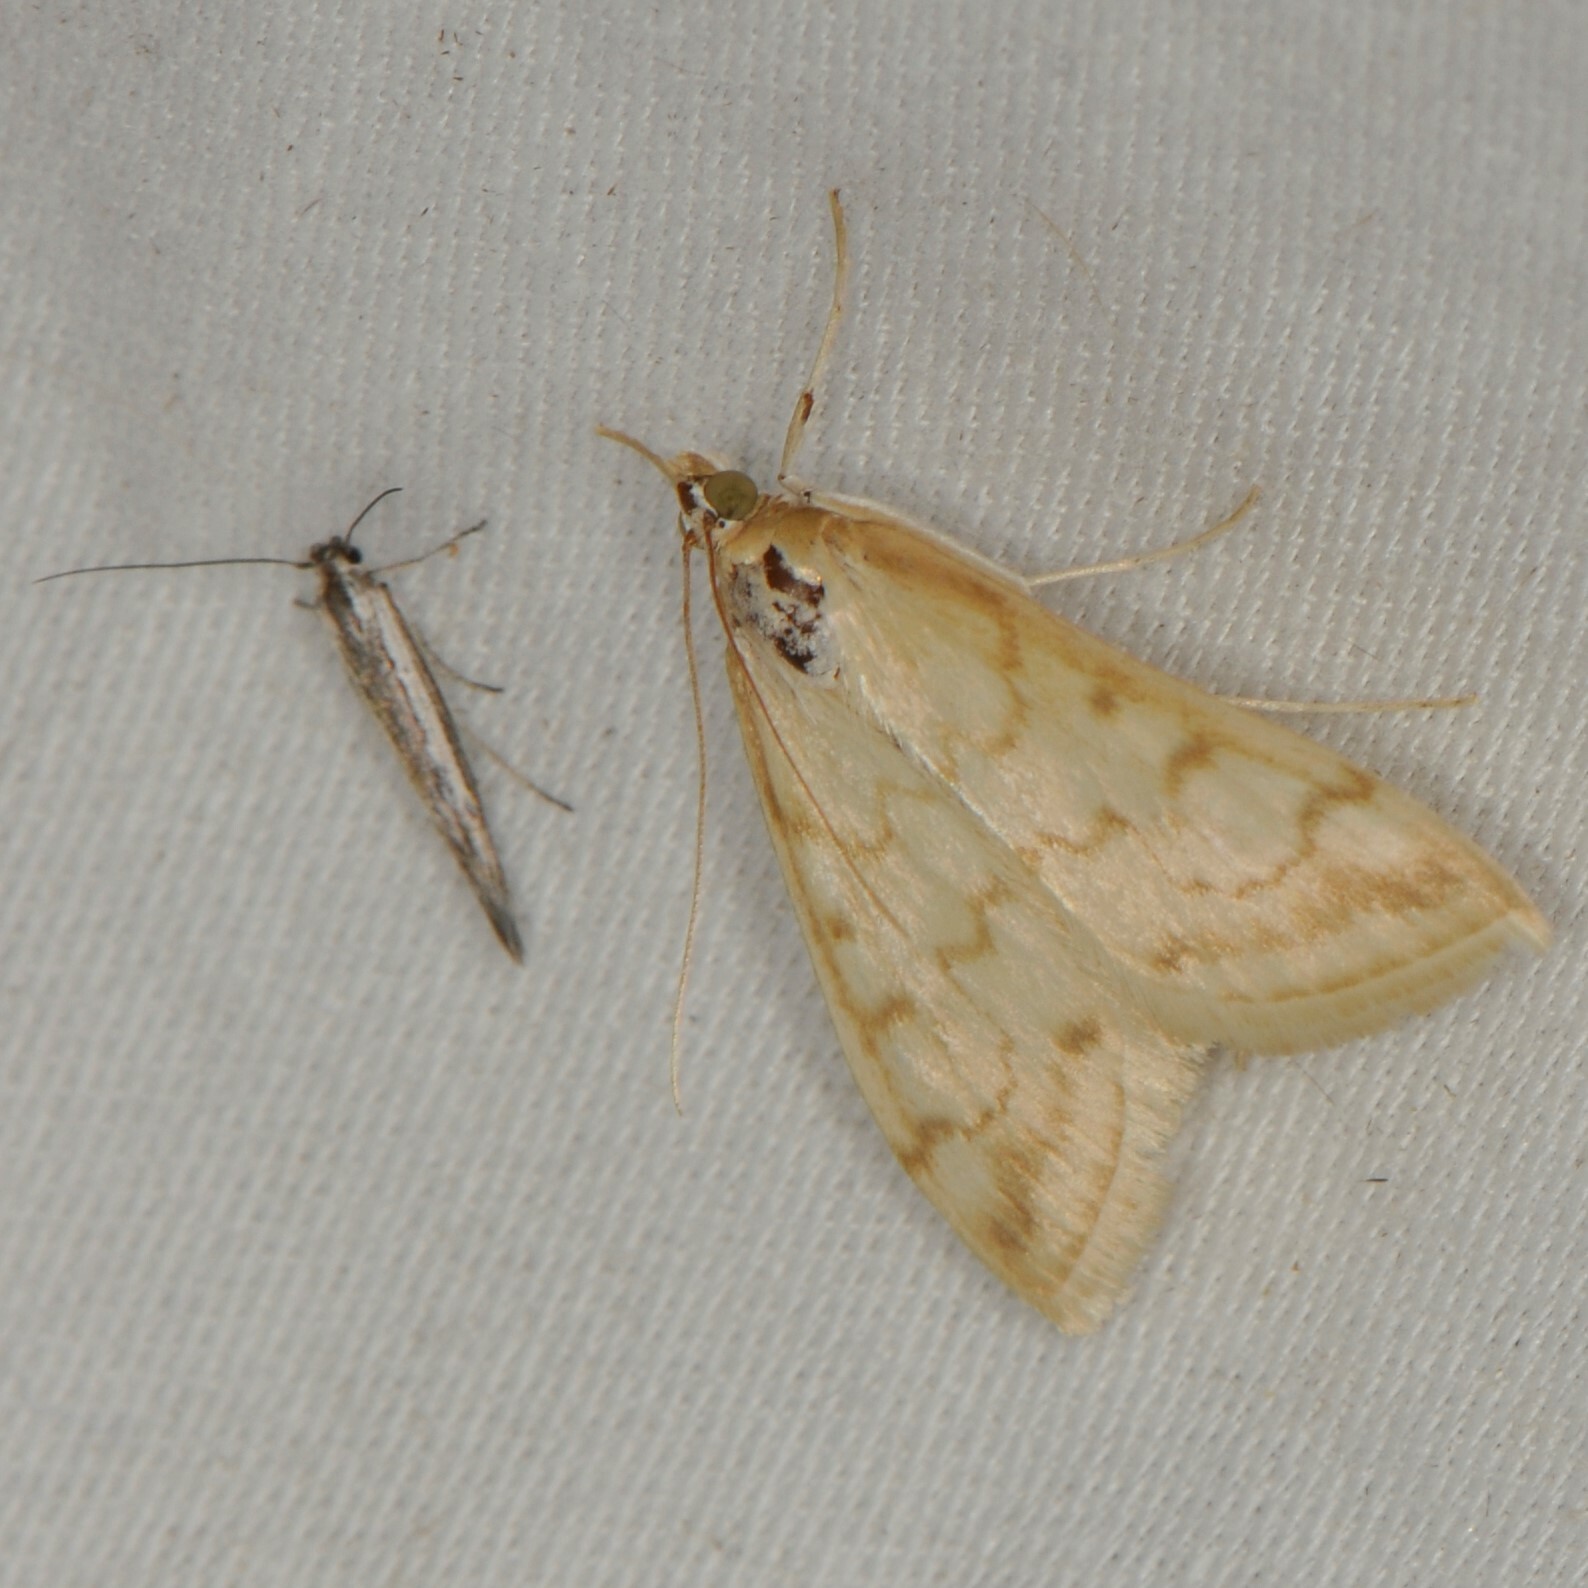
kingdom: Animalia
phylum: Arthropoda
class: Insecta
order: Lepidoptera
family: Crambidae
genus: Hahncappsia
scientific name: Hahncappsia pergilvalis
